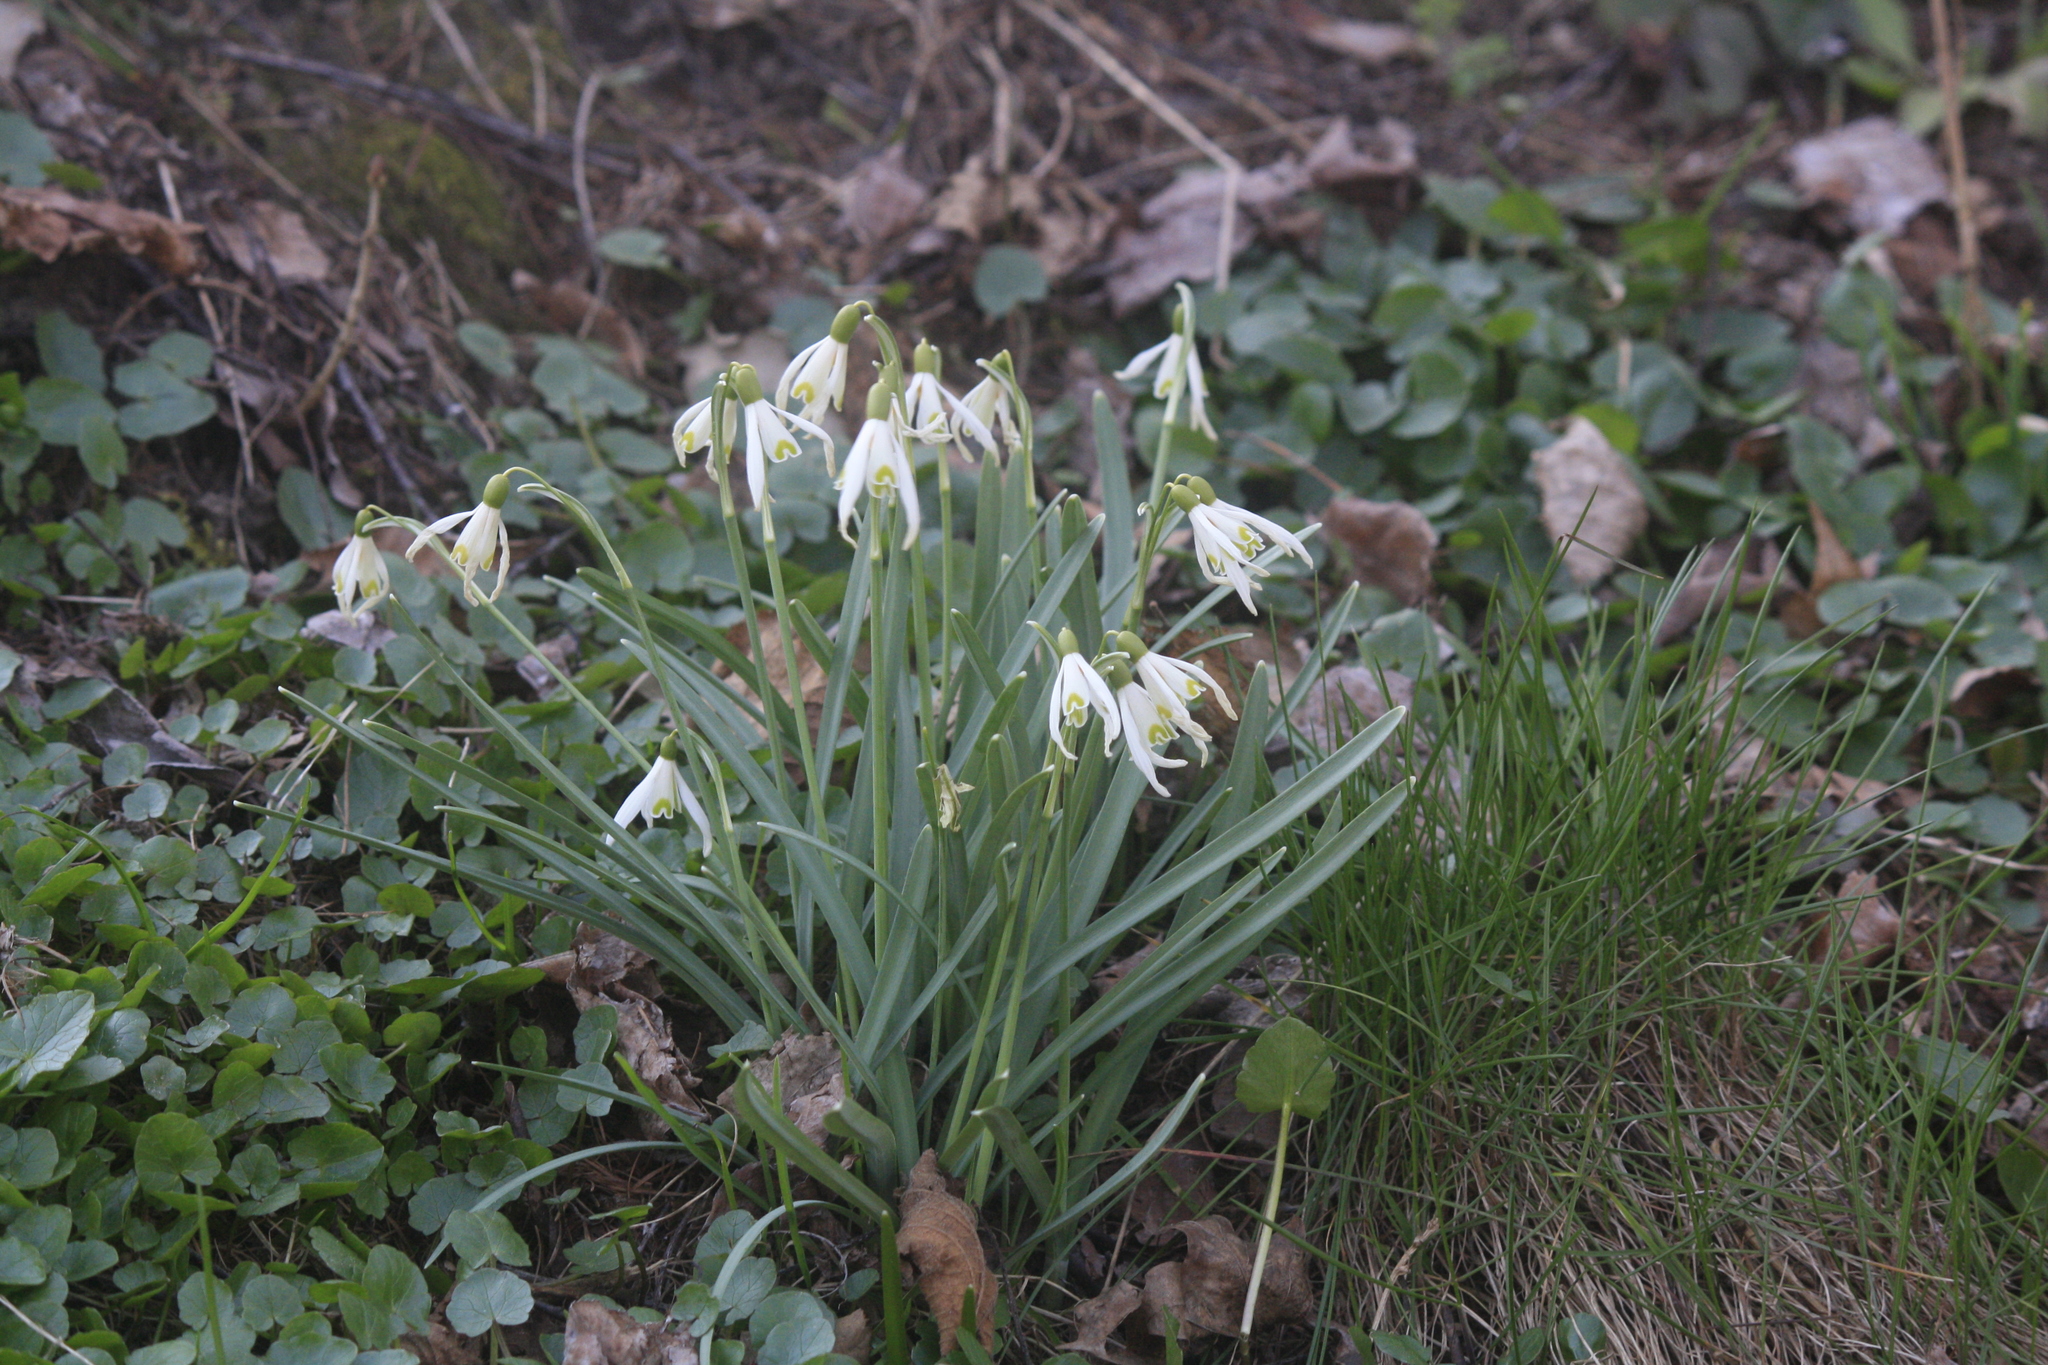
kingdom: Plantae
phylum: Tracheophyta
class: Liliopsida
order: Asparagales
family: Amaryllidaceae
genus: Galanthus
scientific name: Galanthus nivalis
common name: Snowdrop
